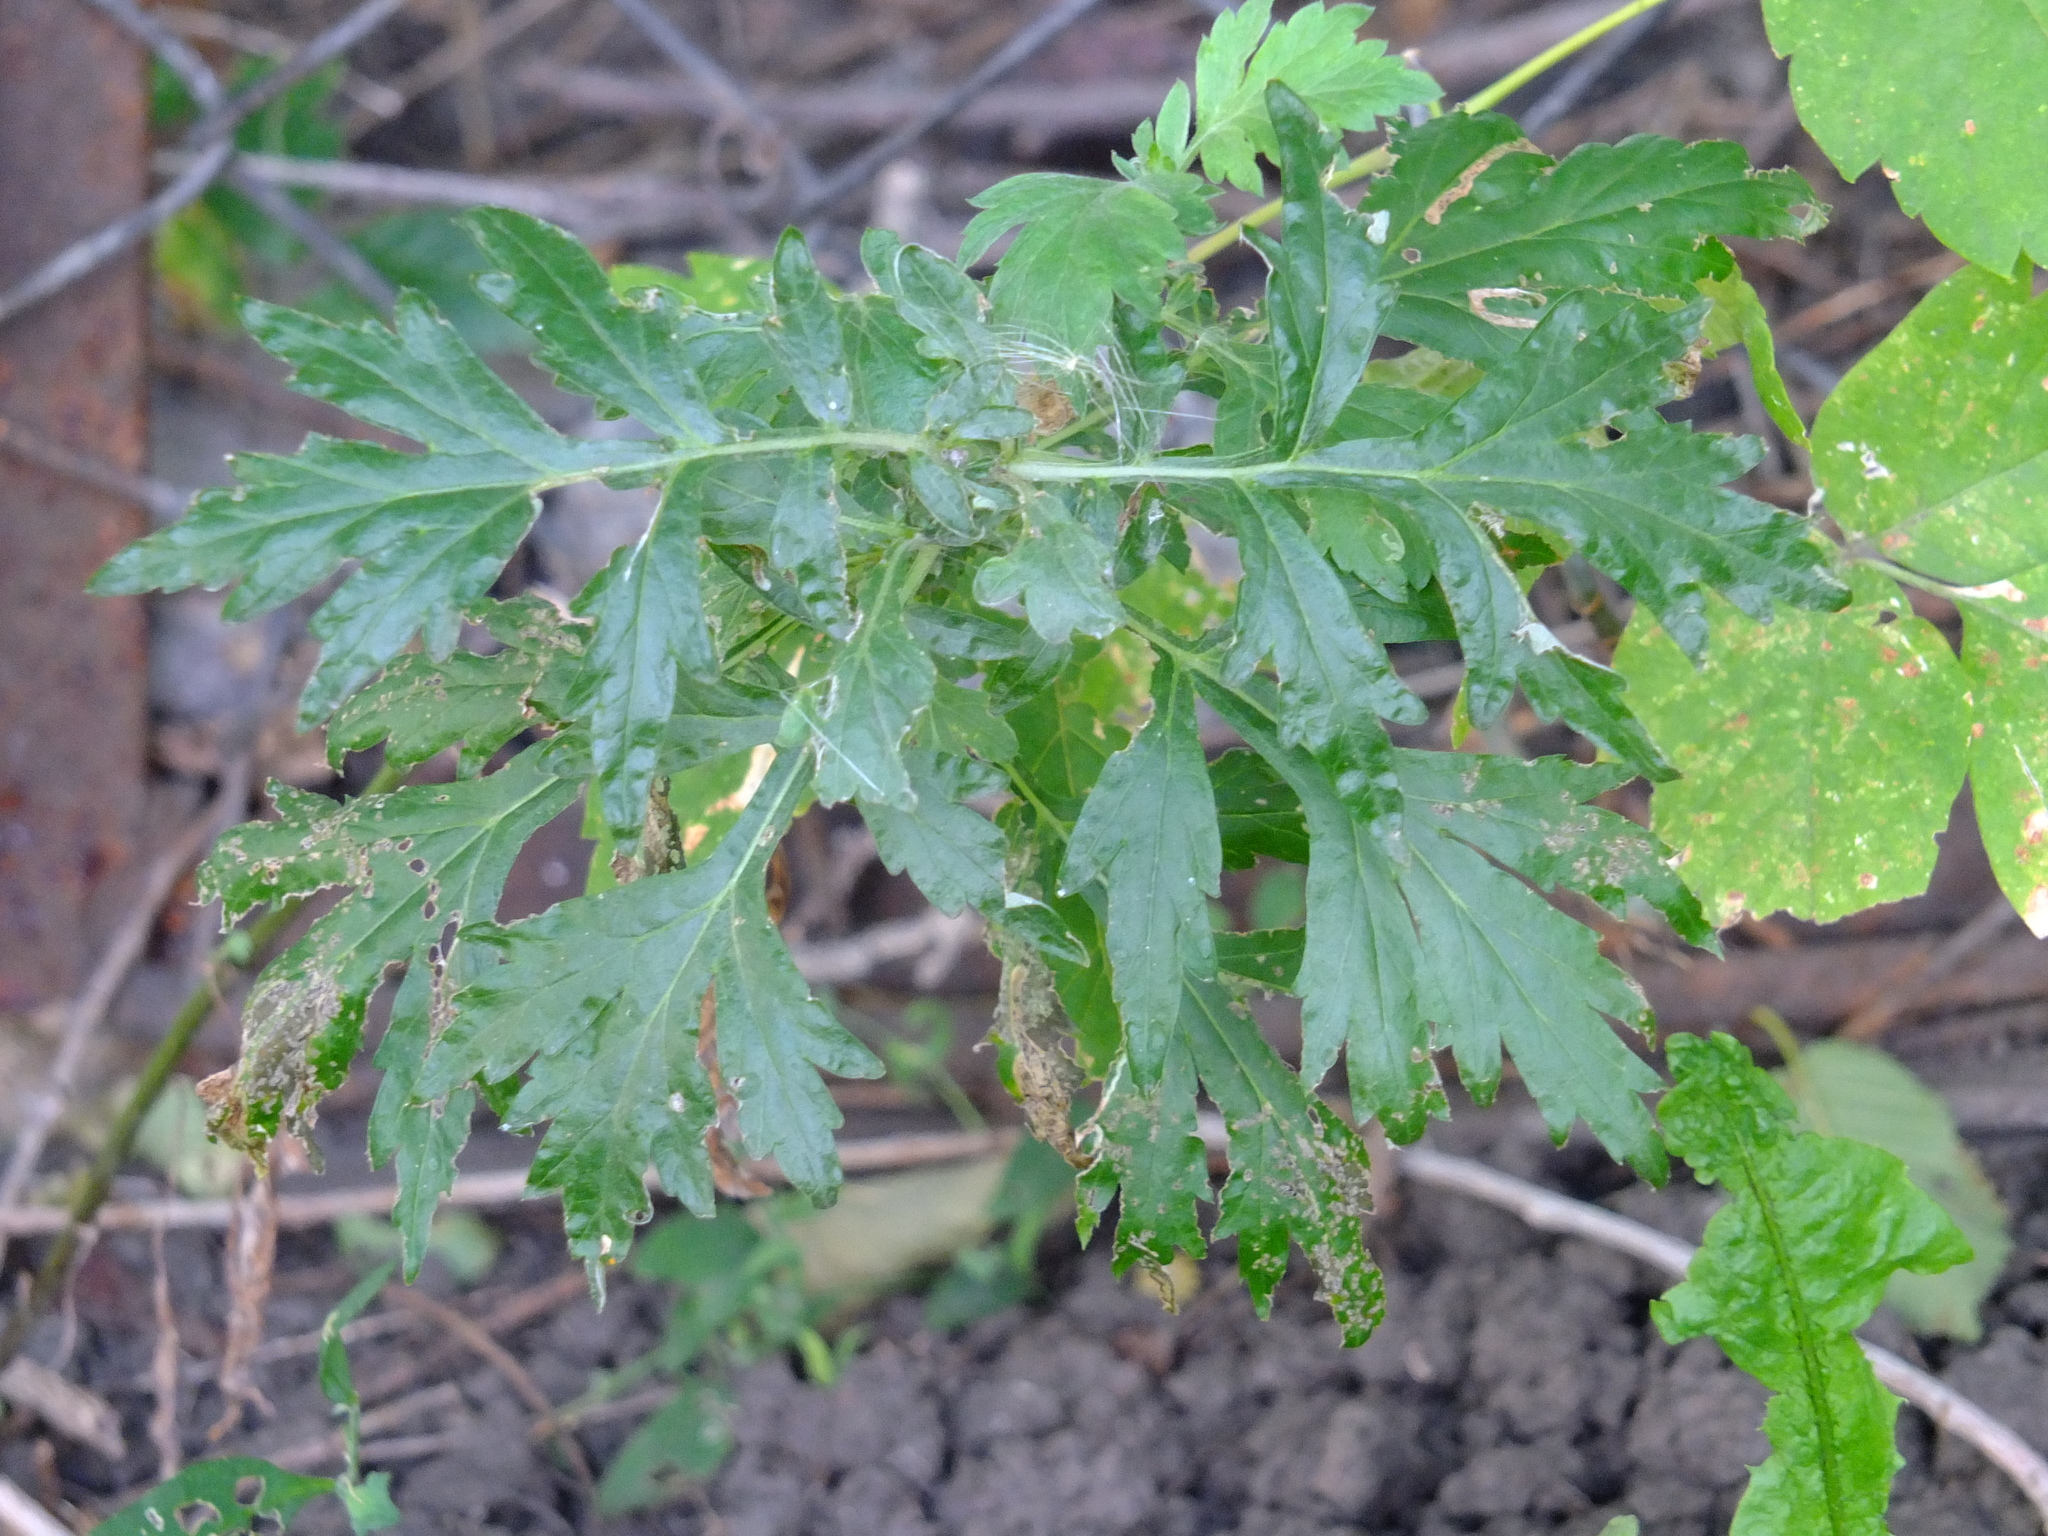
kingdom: Plantae
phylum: Tracheophyta
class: Magnoliopsida
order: Asterales
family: Asteraceae
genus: Artemisia
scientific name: Artemisia vulgaris
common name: Mugwort
